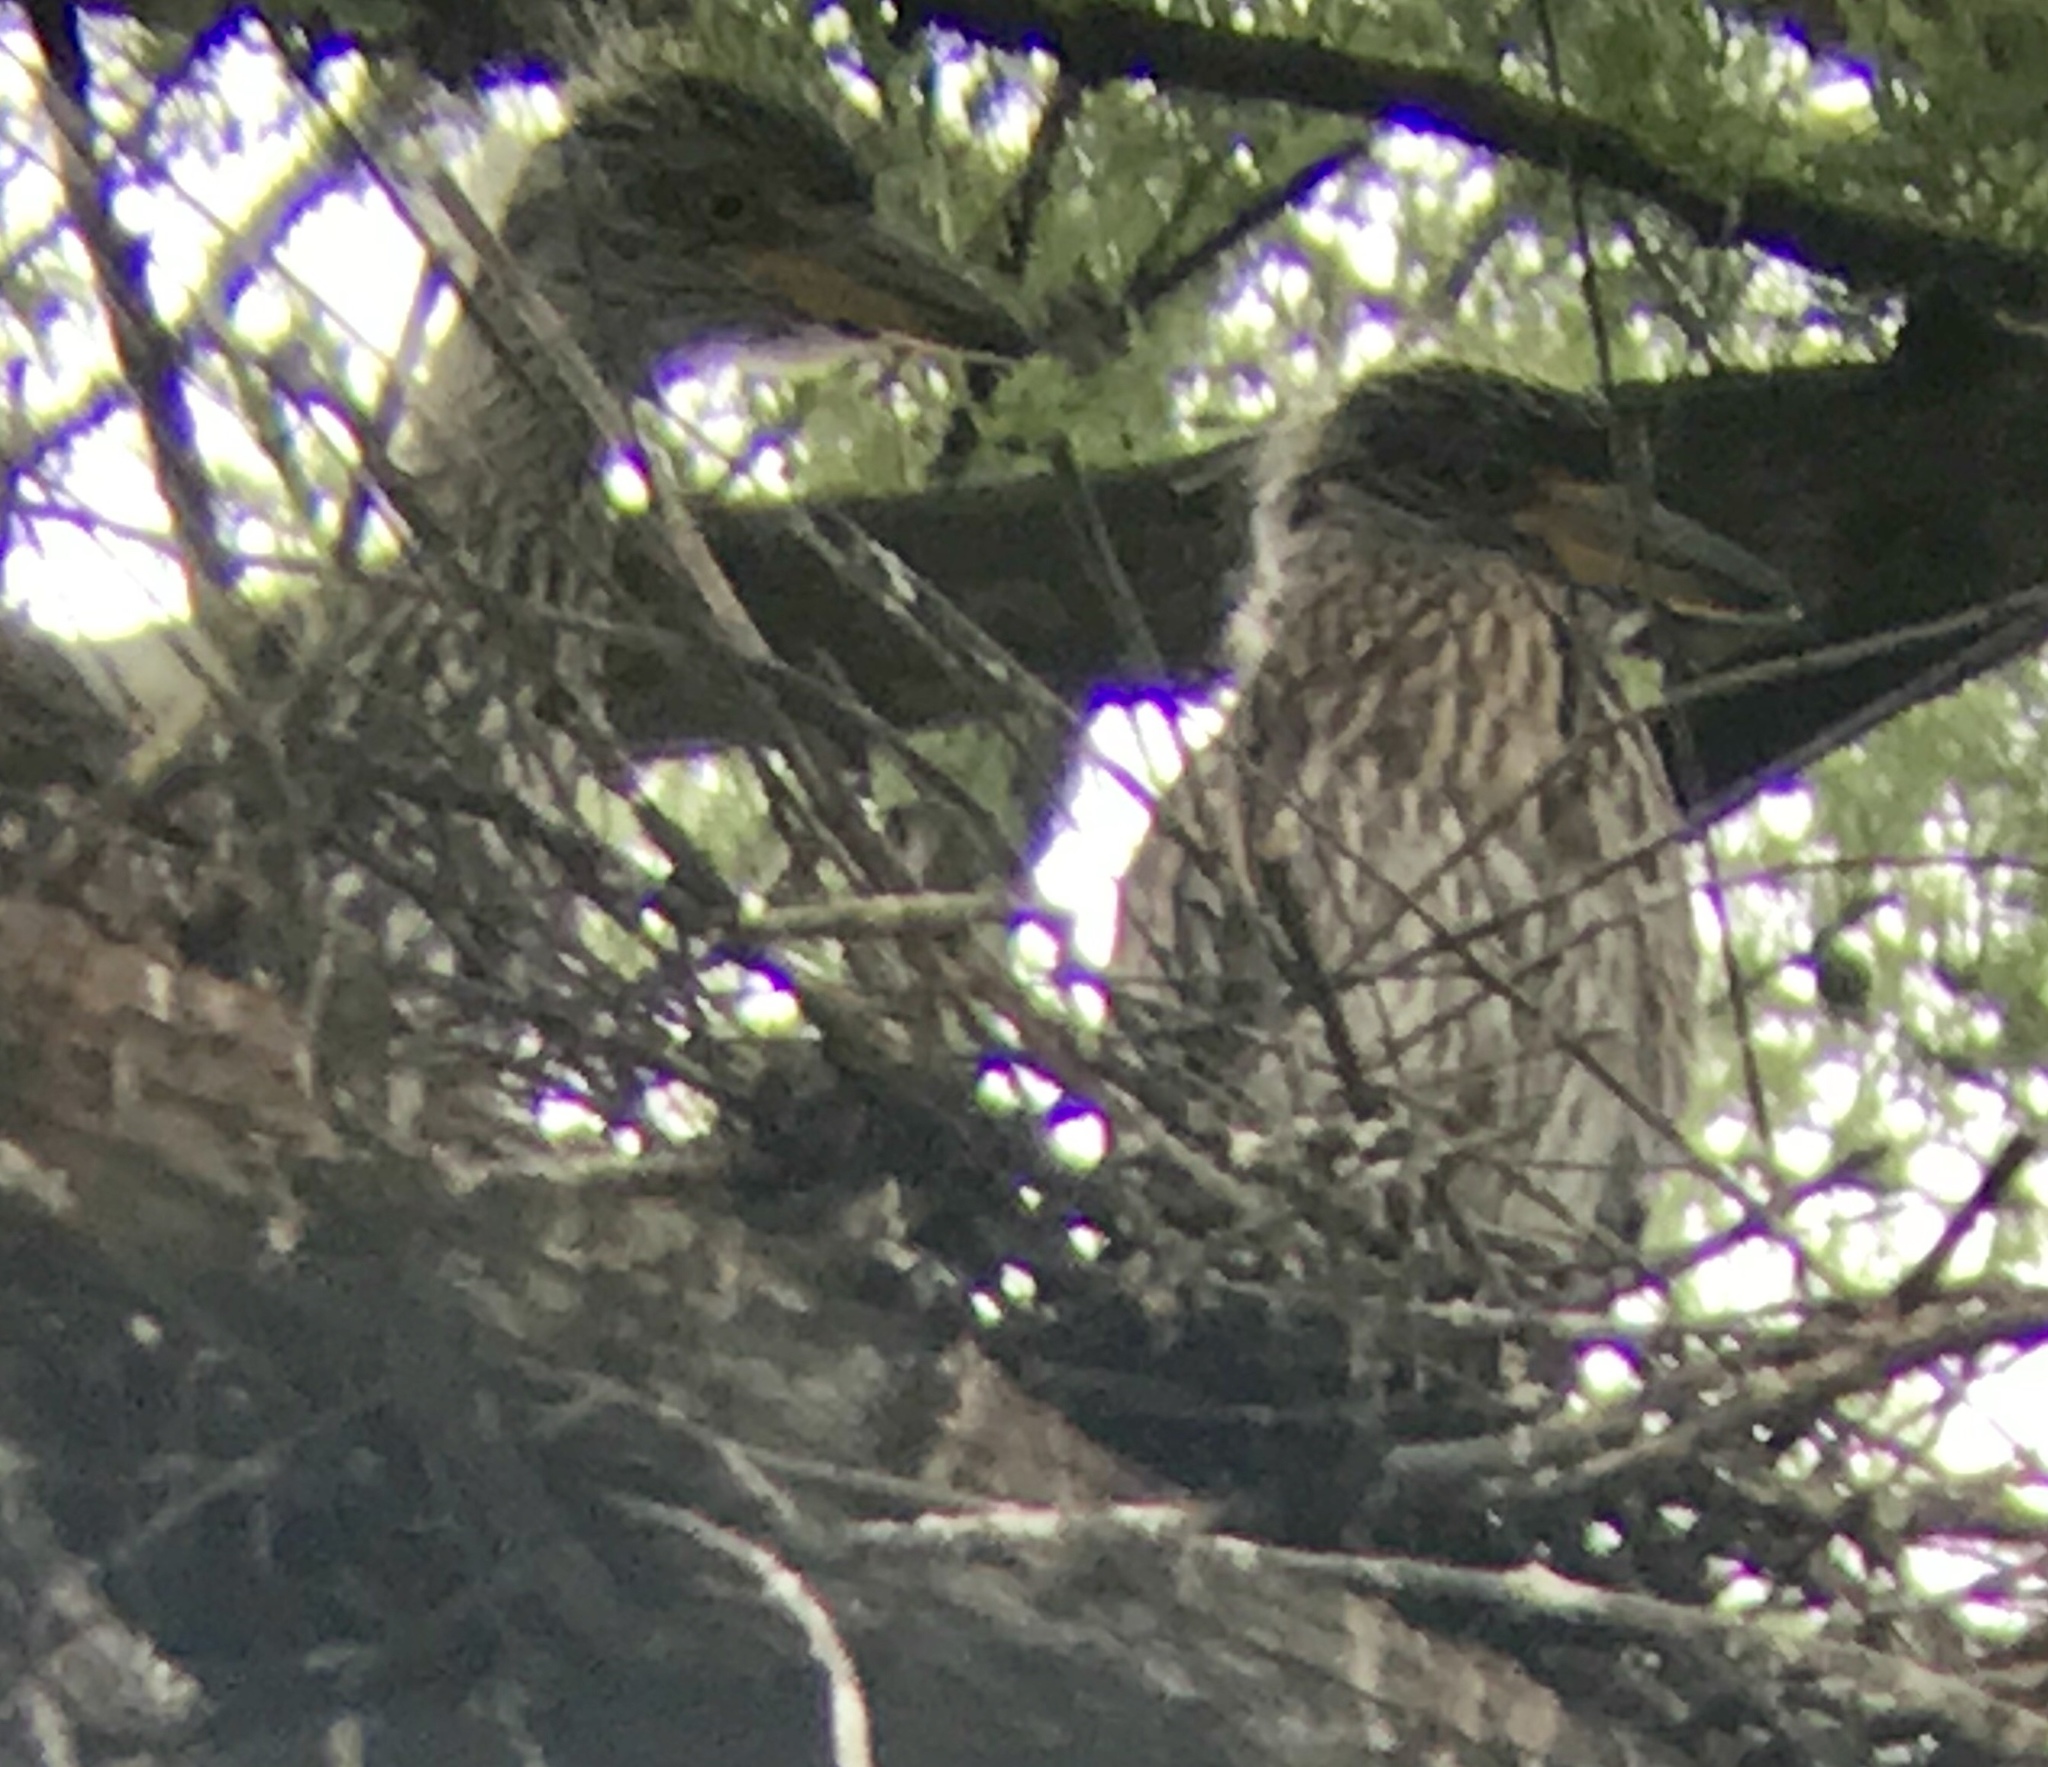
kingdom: Animalia
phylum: Chordata
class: Aves
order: Pelecaniformes
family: Ardeidae
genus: Nyctanassa
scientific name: Nyctanassa violacea
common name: Yellow-crowned night heron
